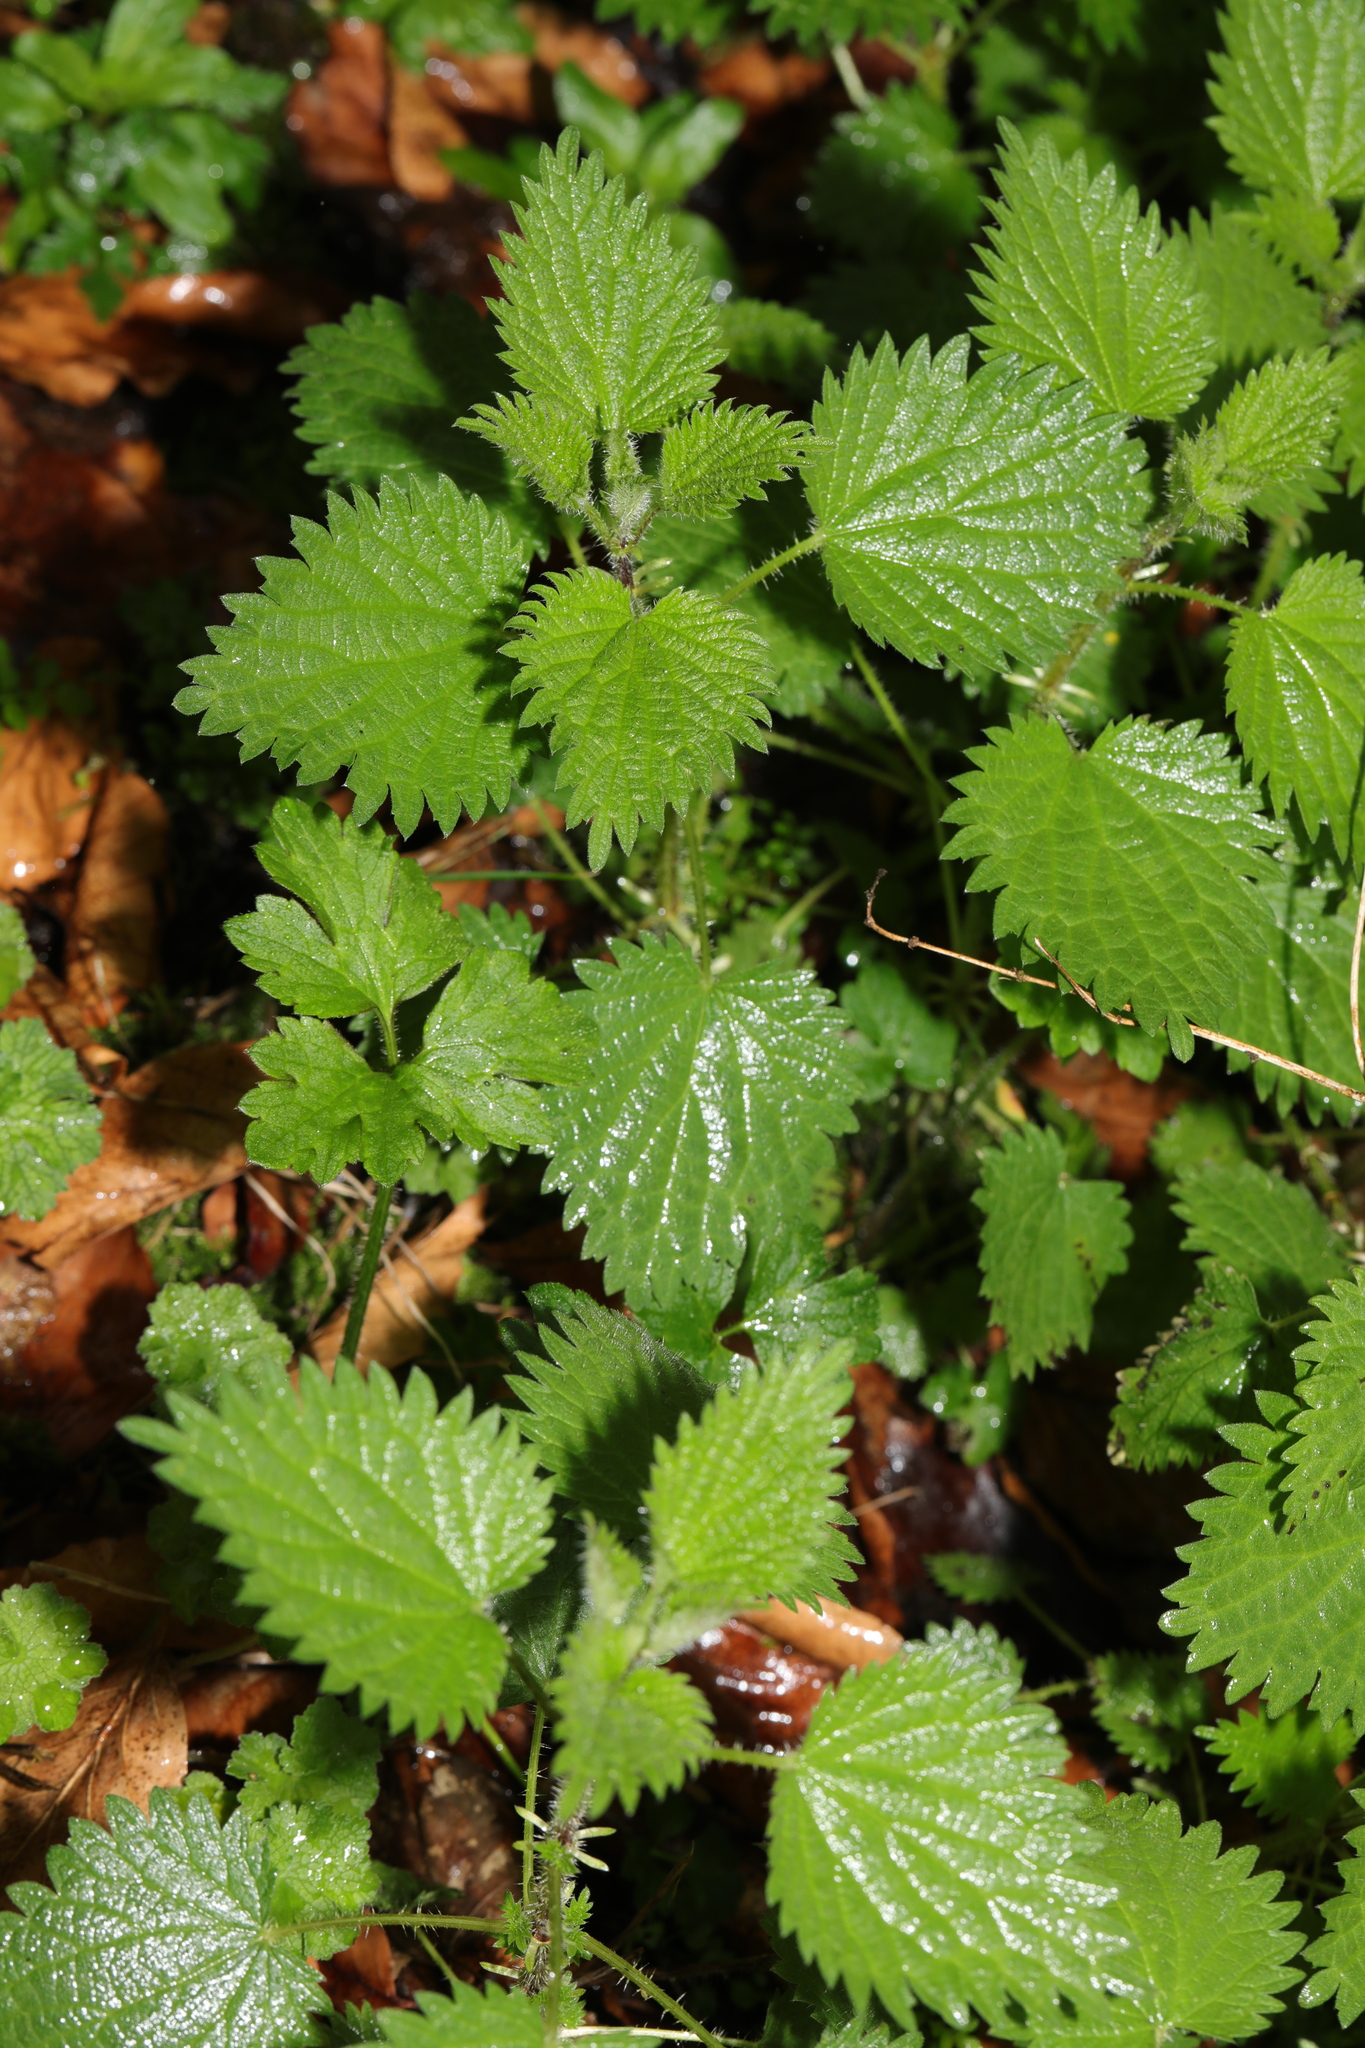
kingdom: Plantae
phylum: Tracheophyta
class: Magnoliopsida
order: Rosales
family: Urticaceae
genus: Urtica
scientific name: Urtica dioica
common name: Common nettle
